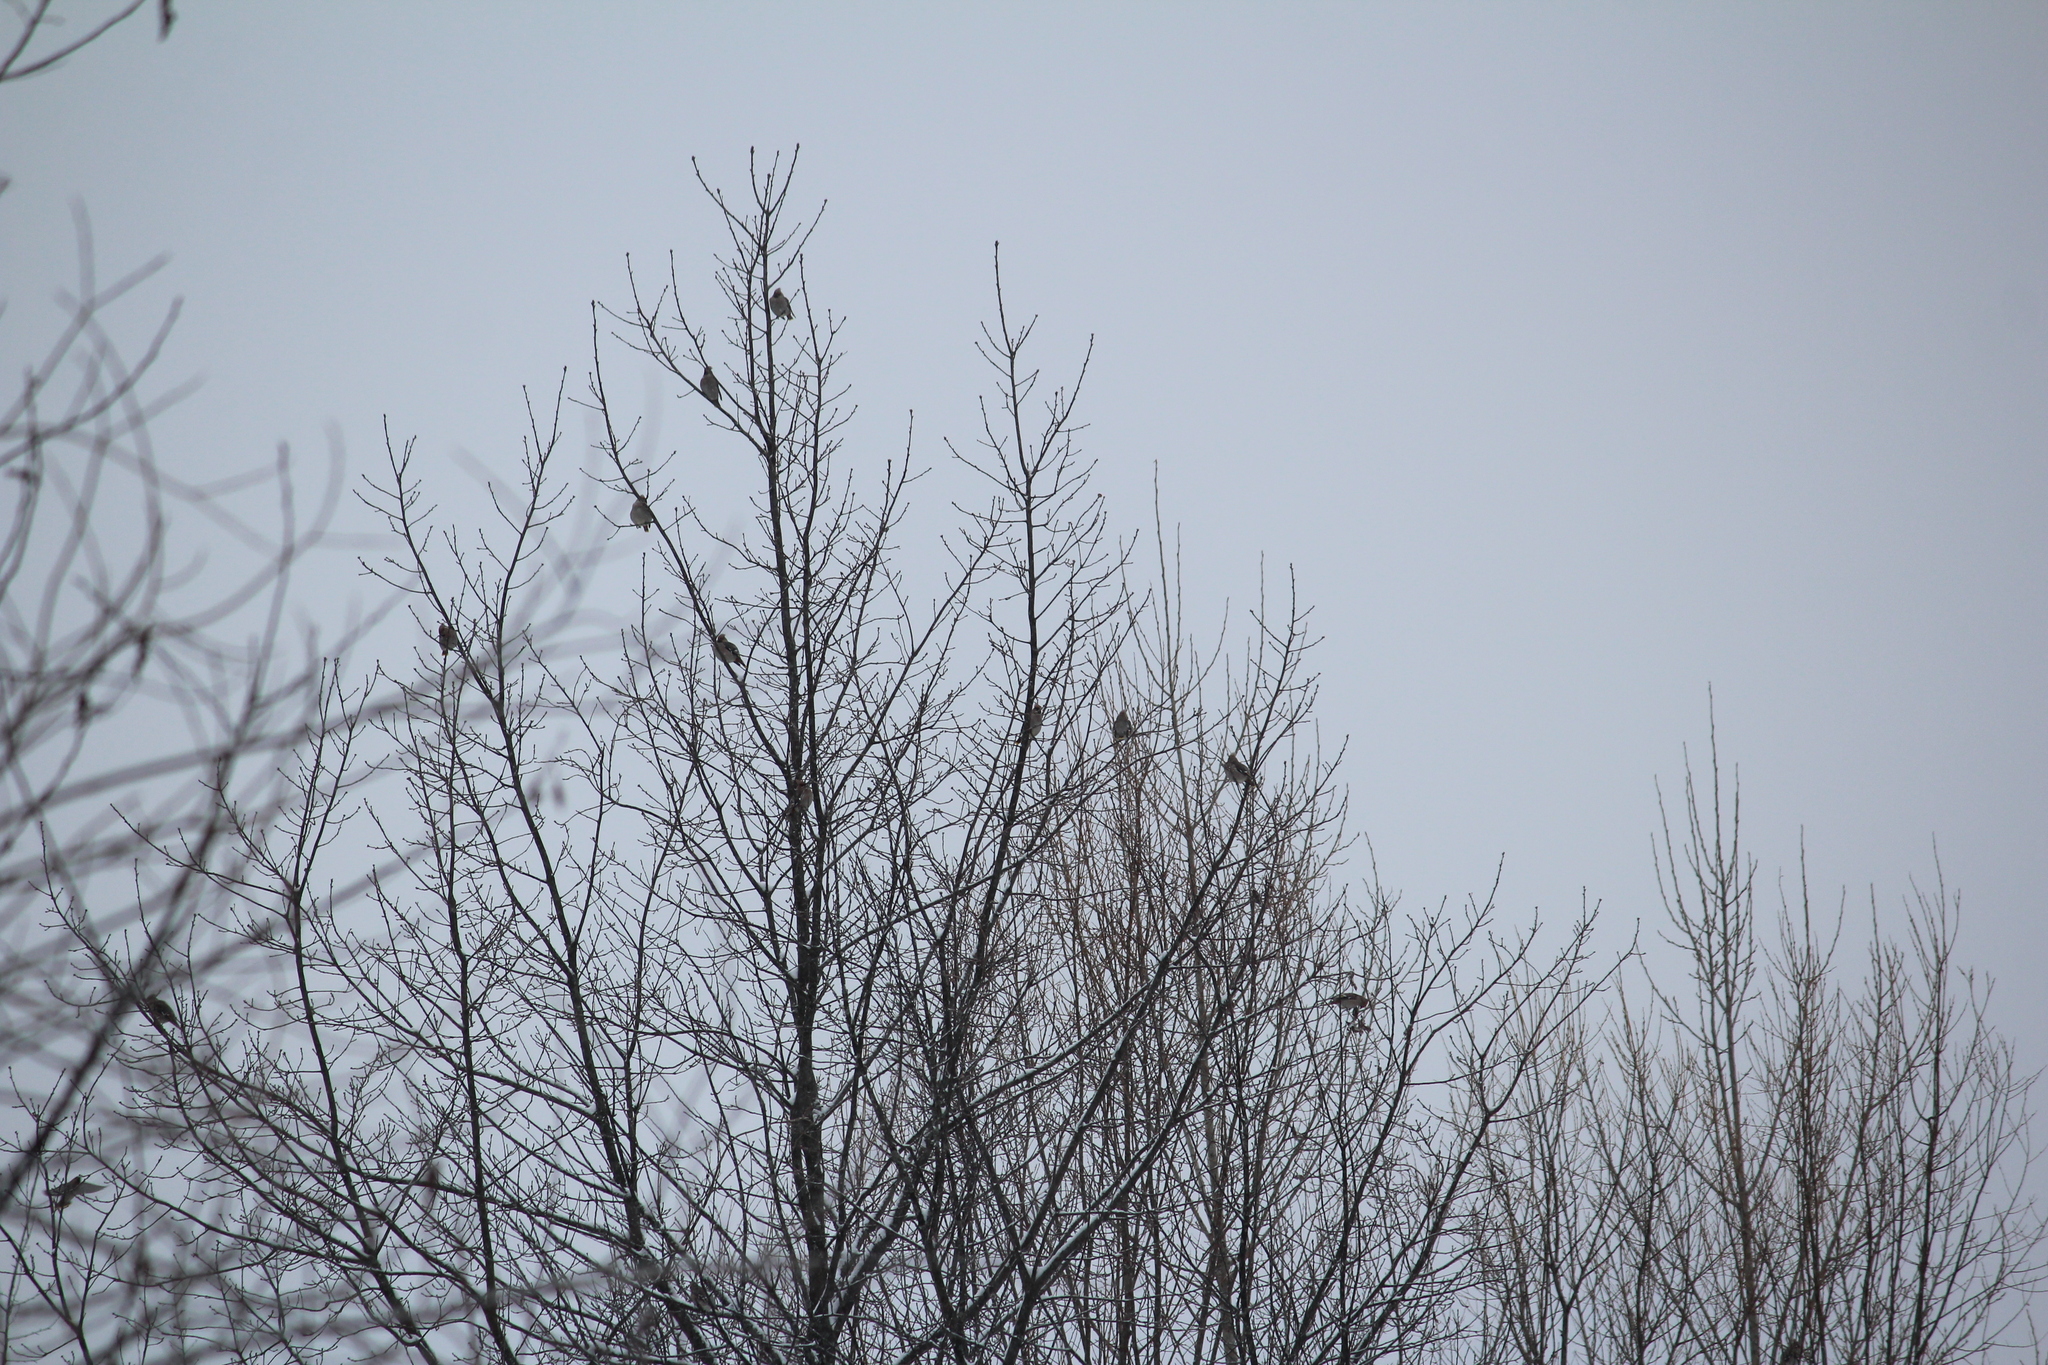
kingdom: Animalia
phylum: Chordata
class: Aves
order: Passeriformes
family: Bombycillidae
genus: Bombycilla
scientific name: Bombycilla garrulus
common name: Bohemian waxwing
